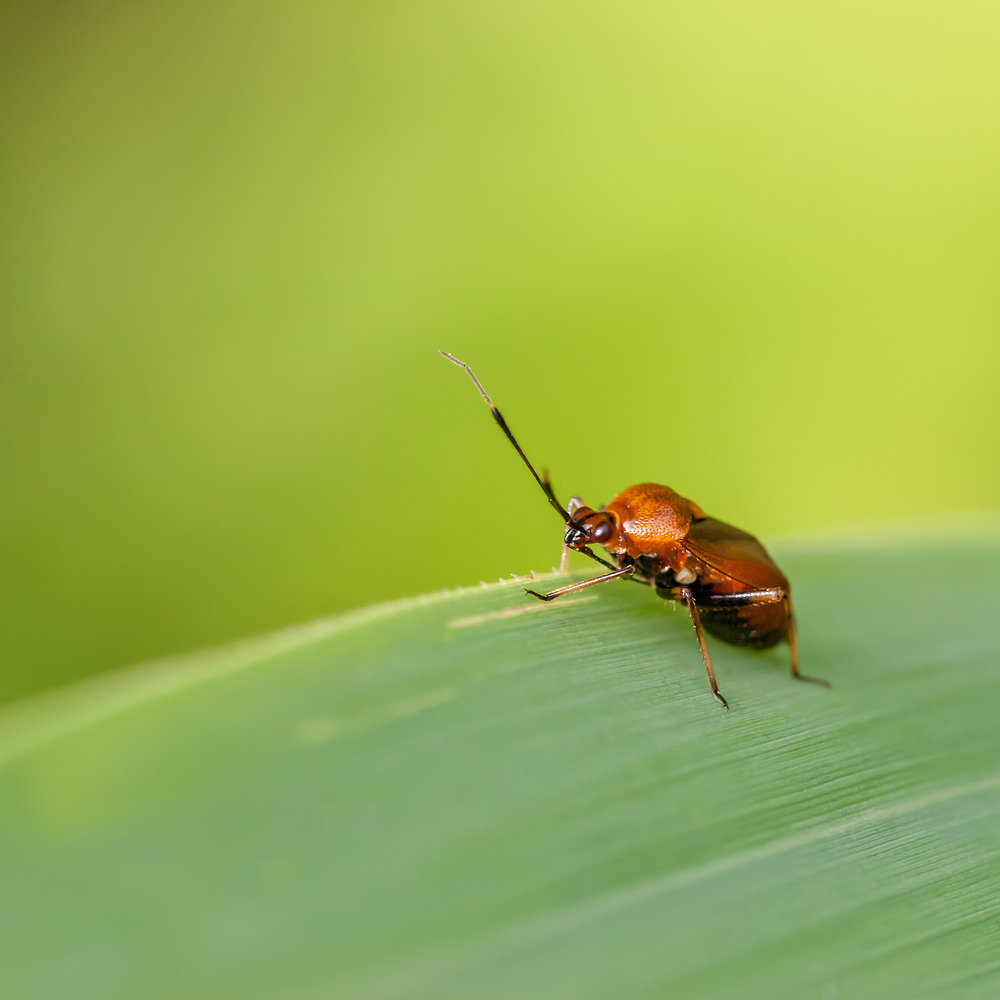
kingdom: Animalia
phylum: Arthropoda
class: Insecta
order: Hemiptera
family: Miridae
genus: Deraeocoris
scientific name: Deraeocoris ruber
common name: Plant bug
